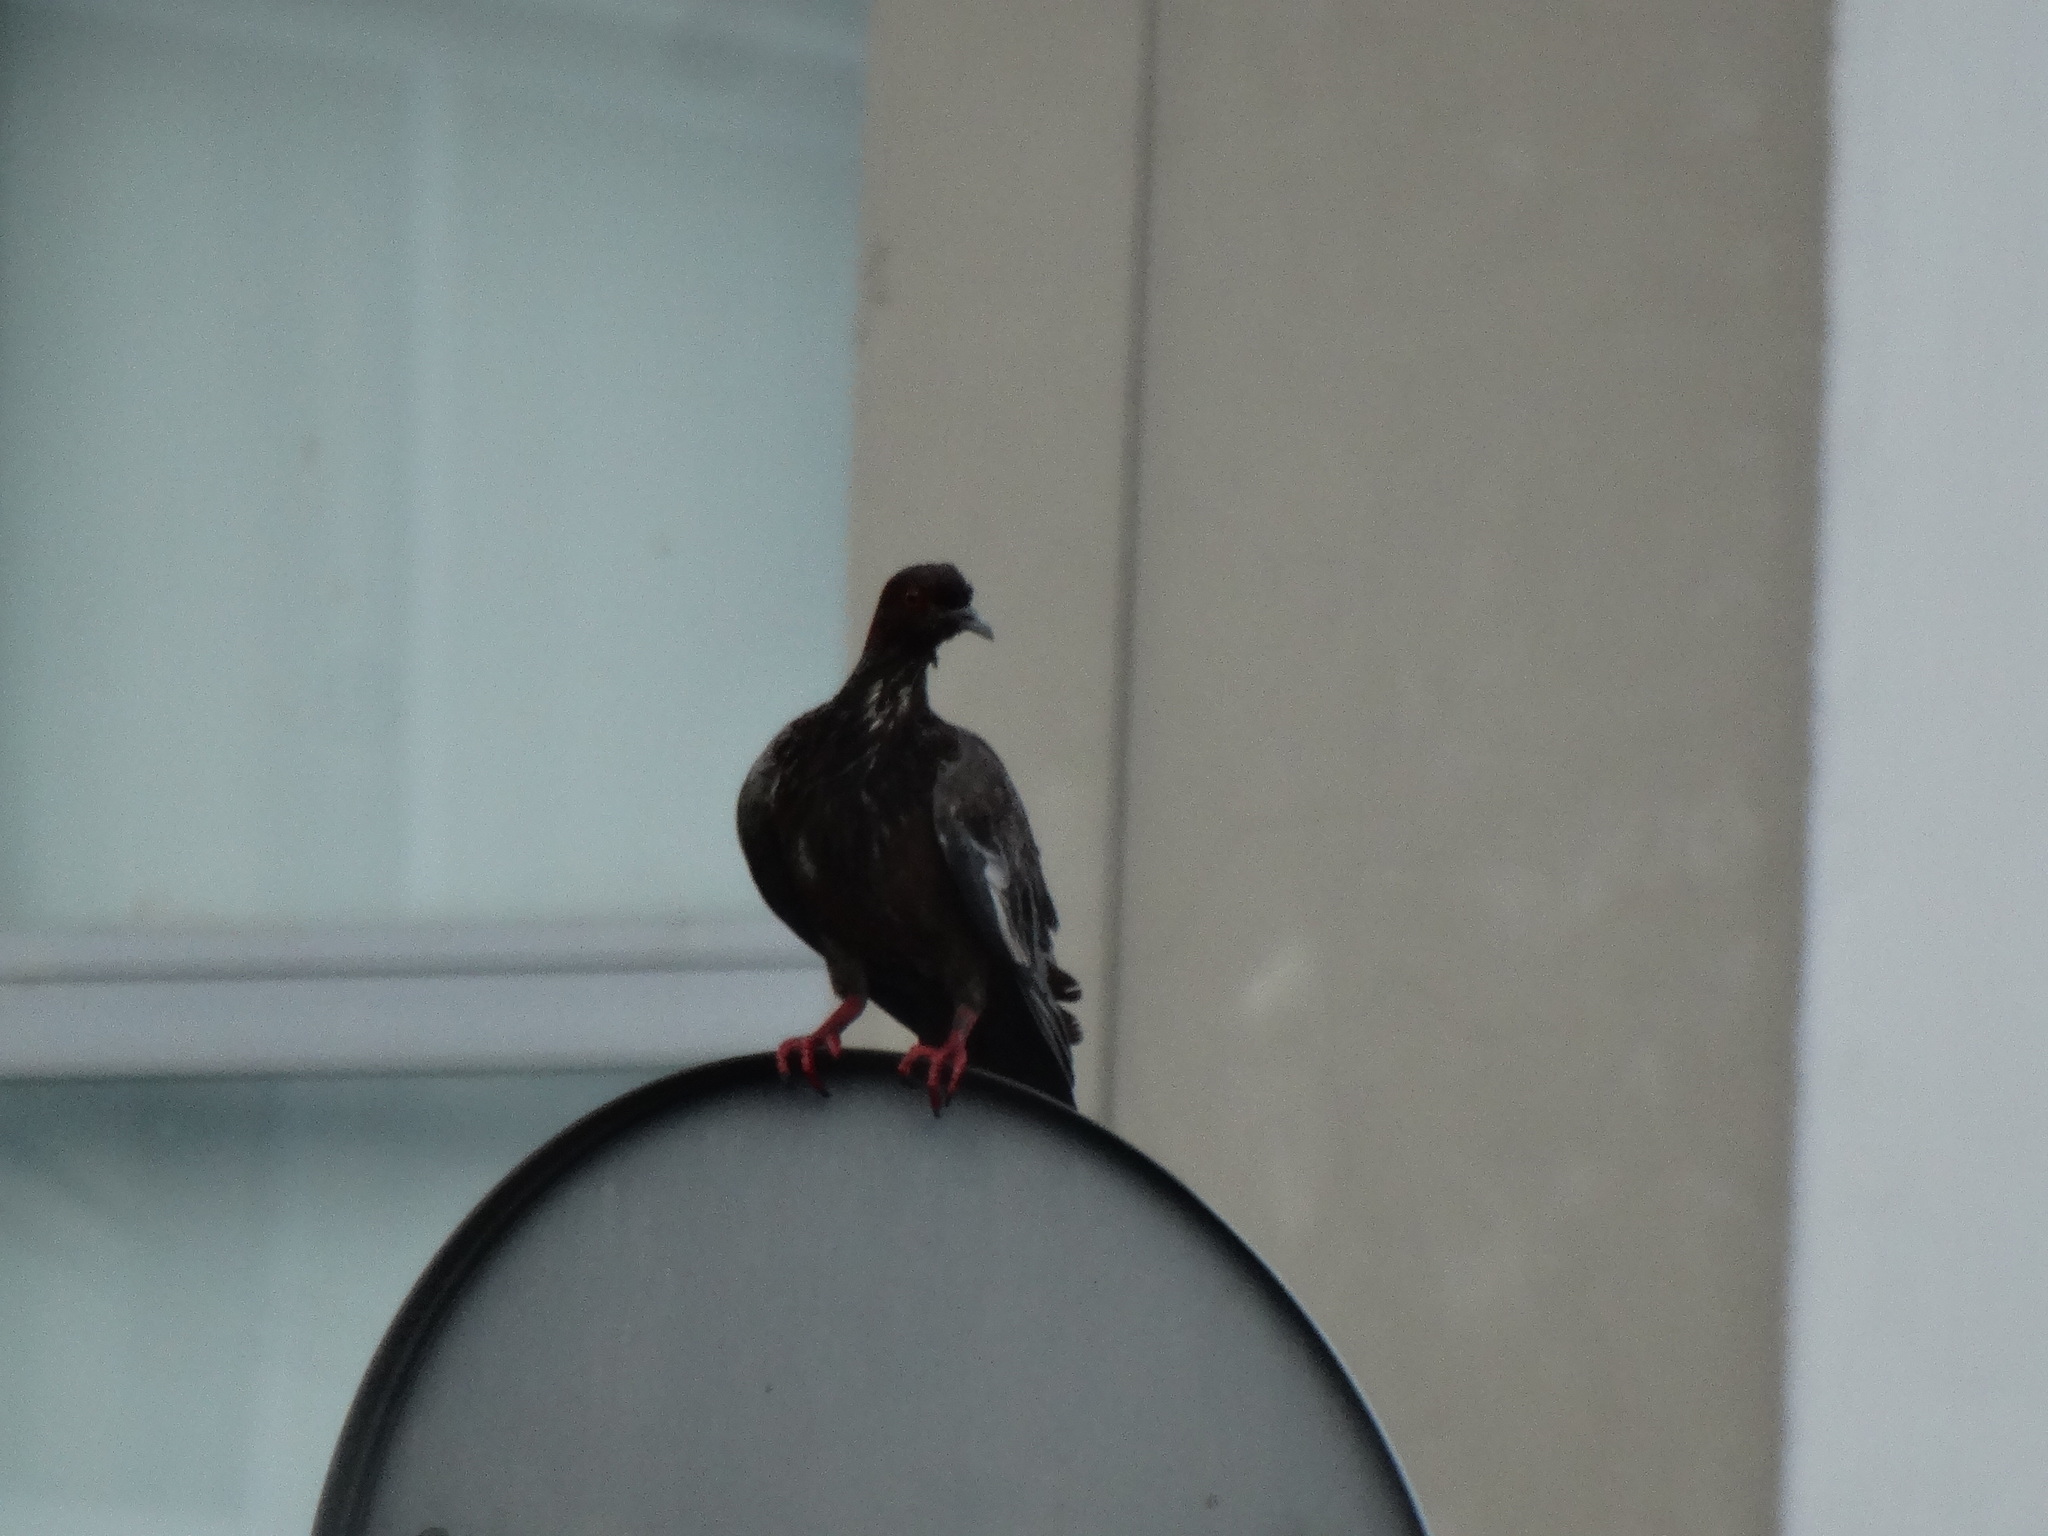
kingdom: Animalia
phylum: Chordata
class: Aves
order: Columbiformes
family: Columbidae
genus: Columba
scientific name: Columba livia
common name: Rock pigeon
